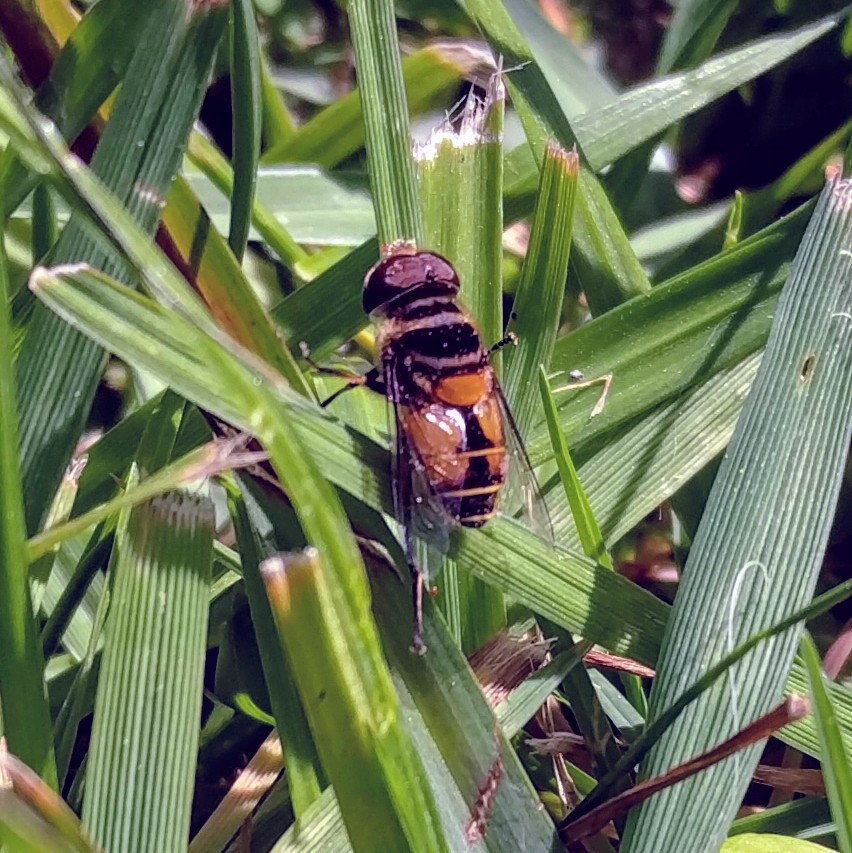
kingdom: Animalia
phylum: Arthropoda
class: Insecta
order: Diptera
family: Syrphidae
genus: Palpada
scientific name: Palpada agrorum
